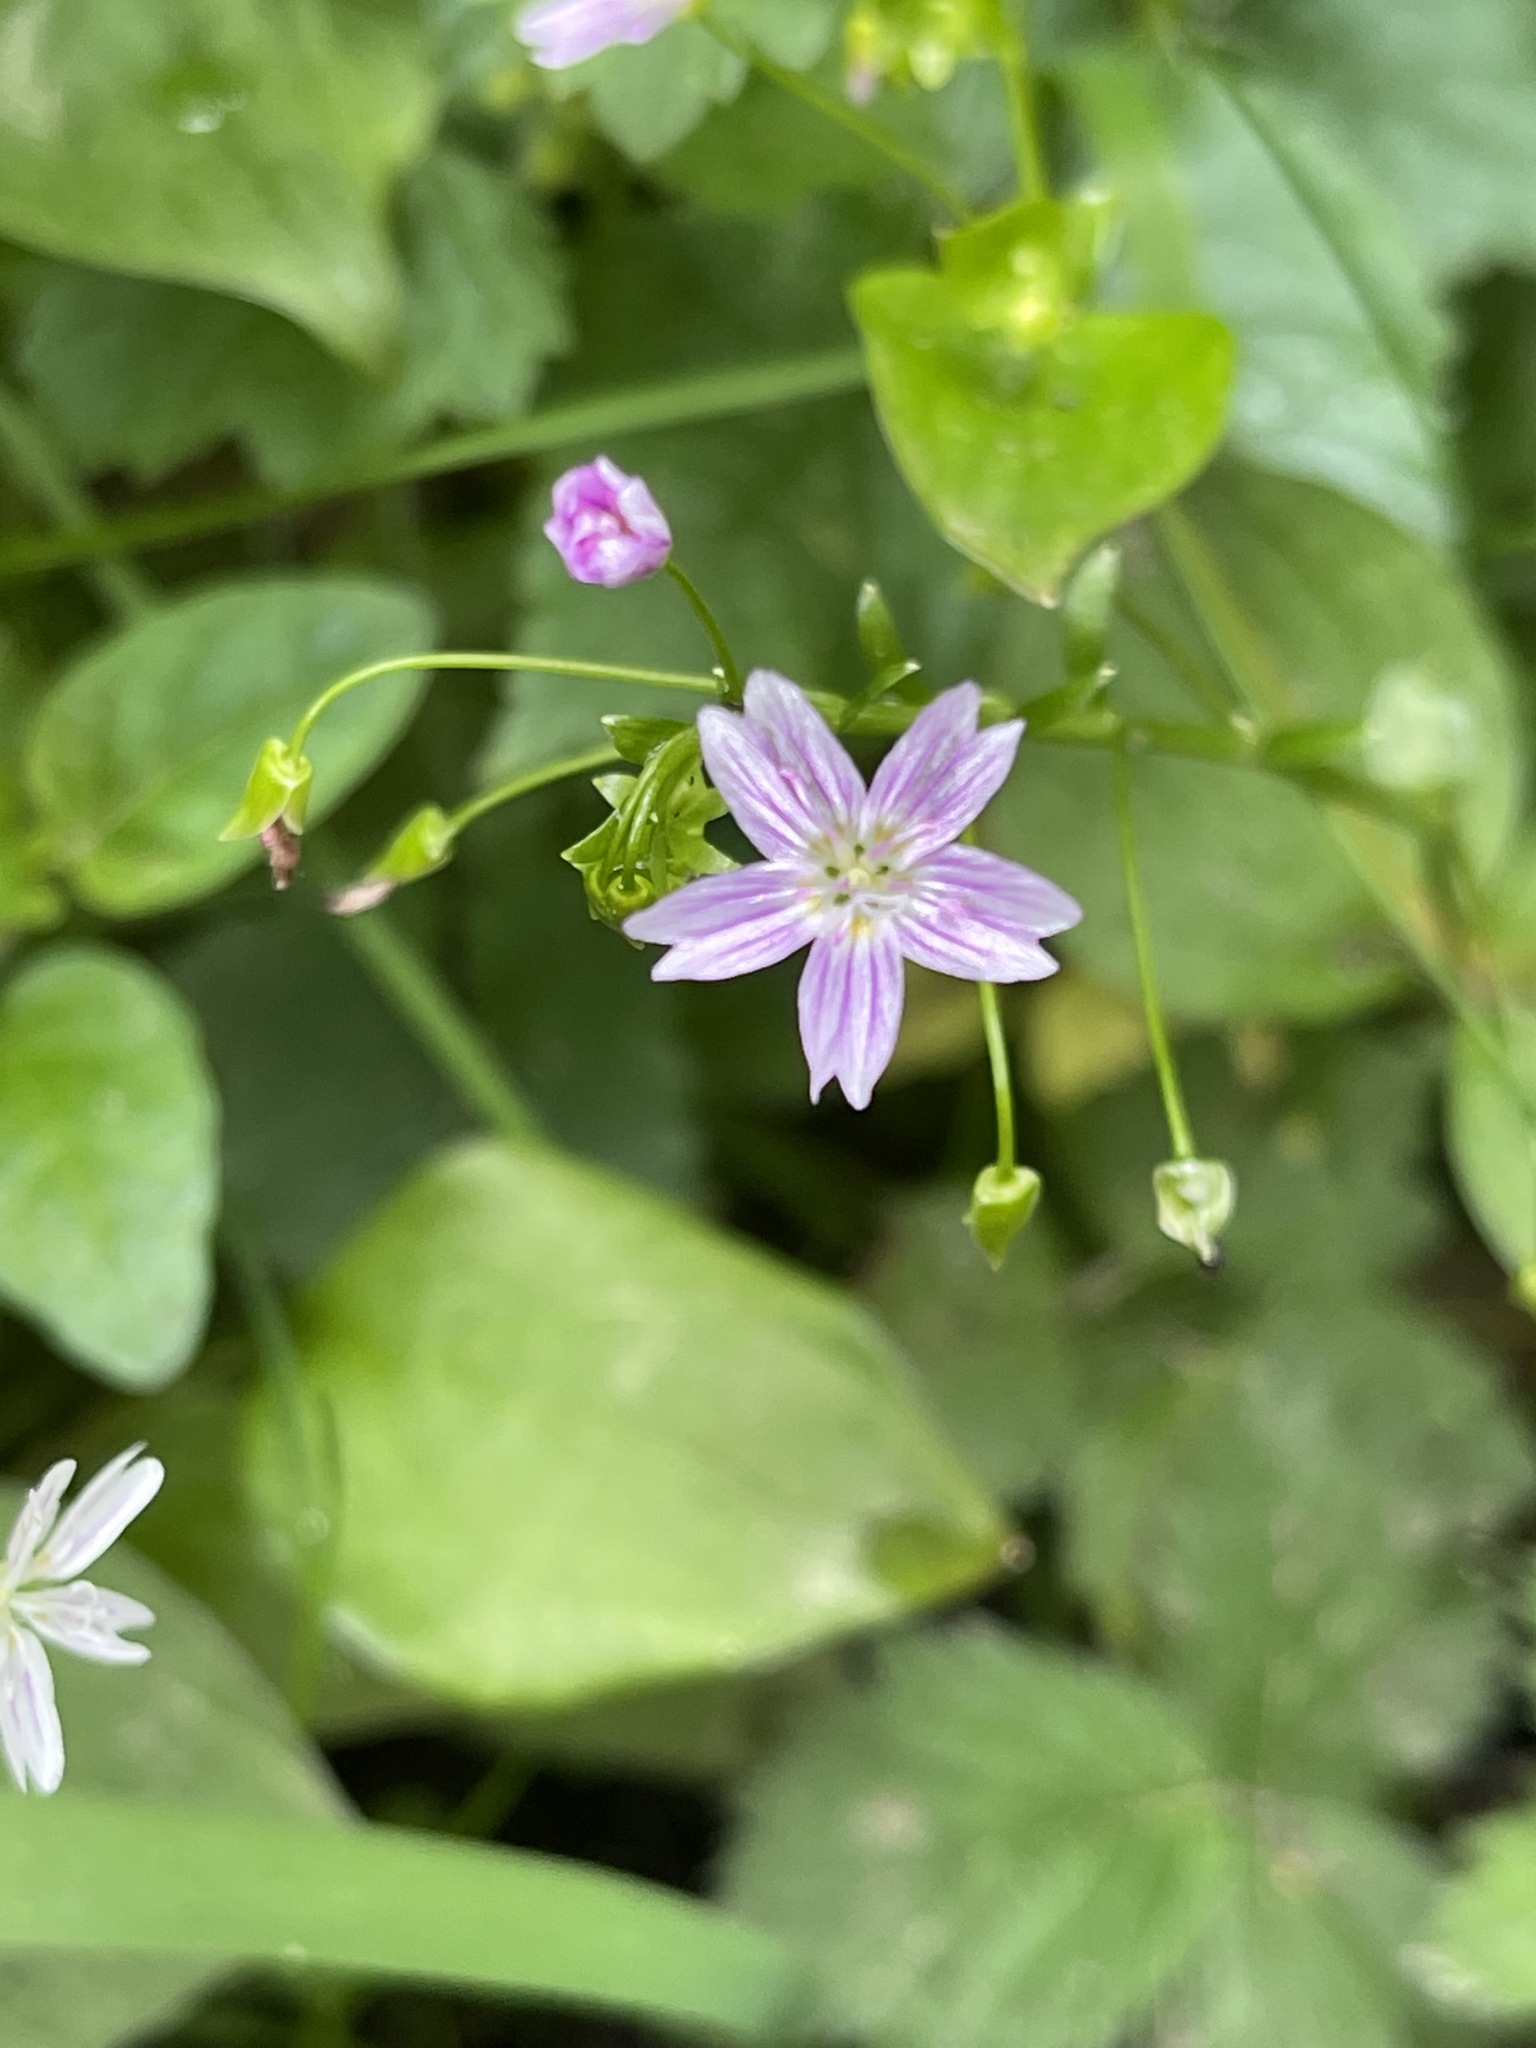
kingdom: Plantae
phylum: Tracheophyta
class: Magnoliopsida
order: Caryophyllales
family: Montiaceae
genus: Claytonia
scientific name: Claytonia sibirica
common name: Pink purslane
